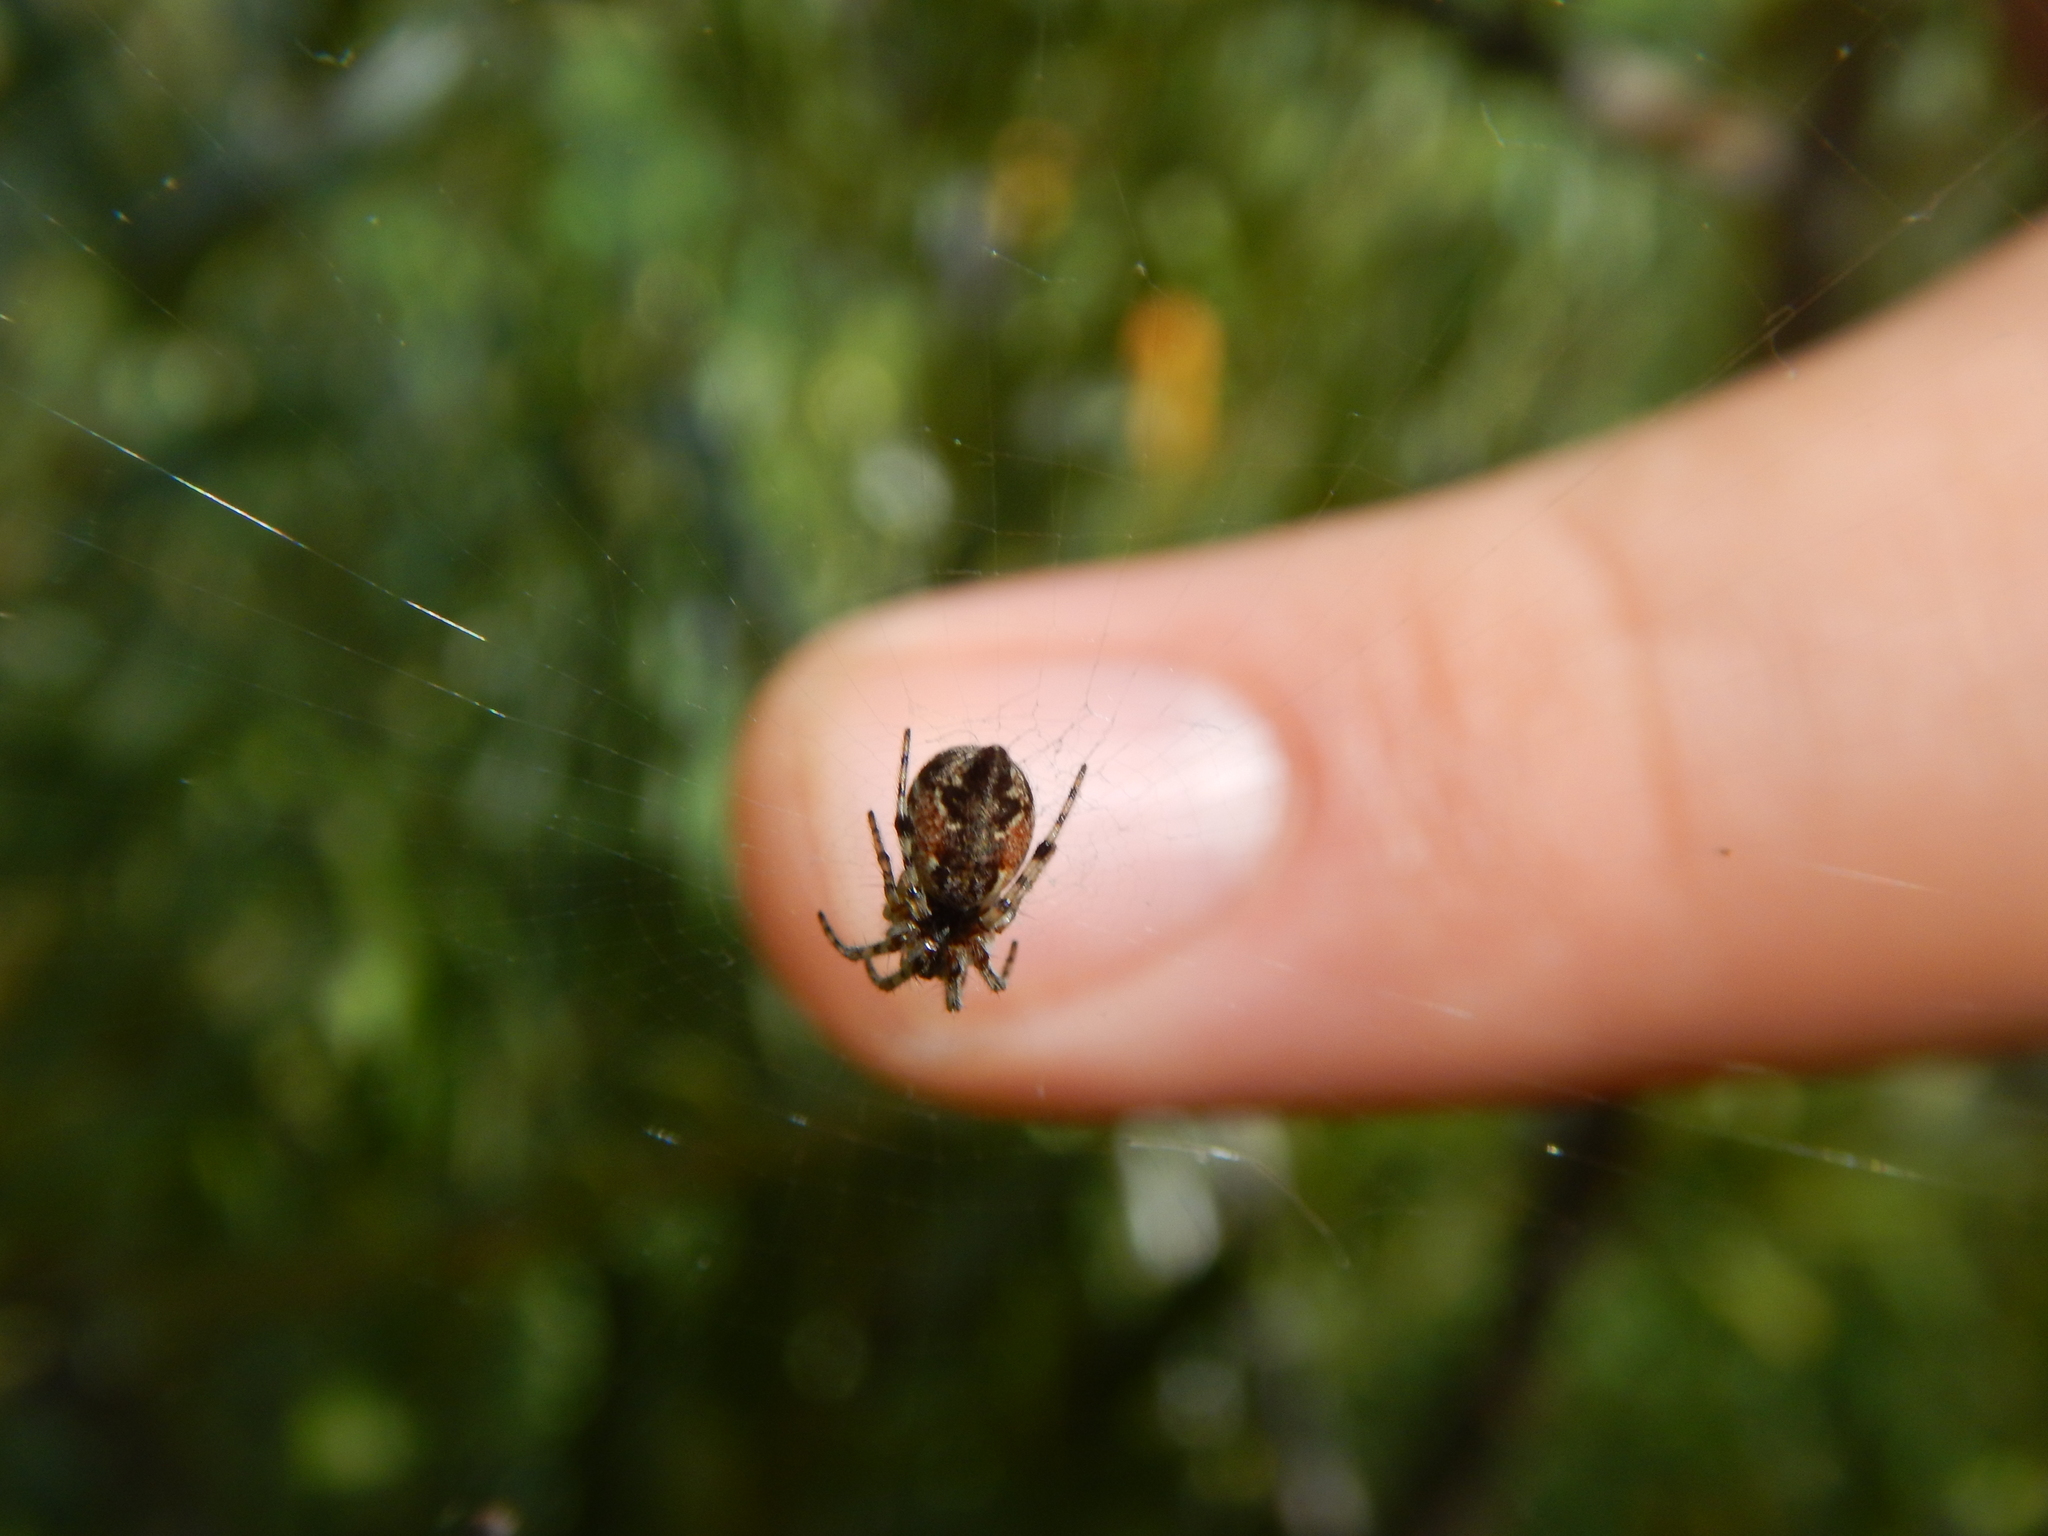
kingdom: Animalia
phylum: Arthropoda
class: Arachnida
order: Araneae
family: Araneidae
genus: Cyclosa
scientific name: Cyclosa conica
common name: Conical trashline orbweaver
